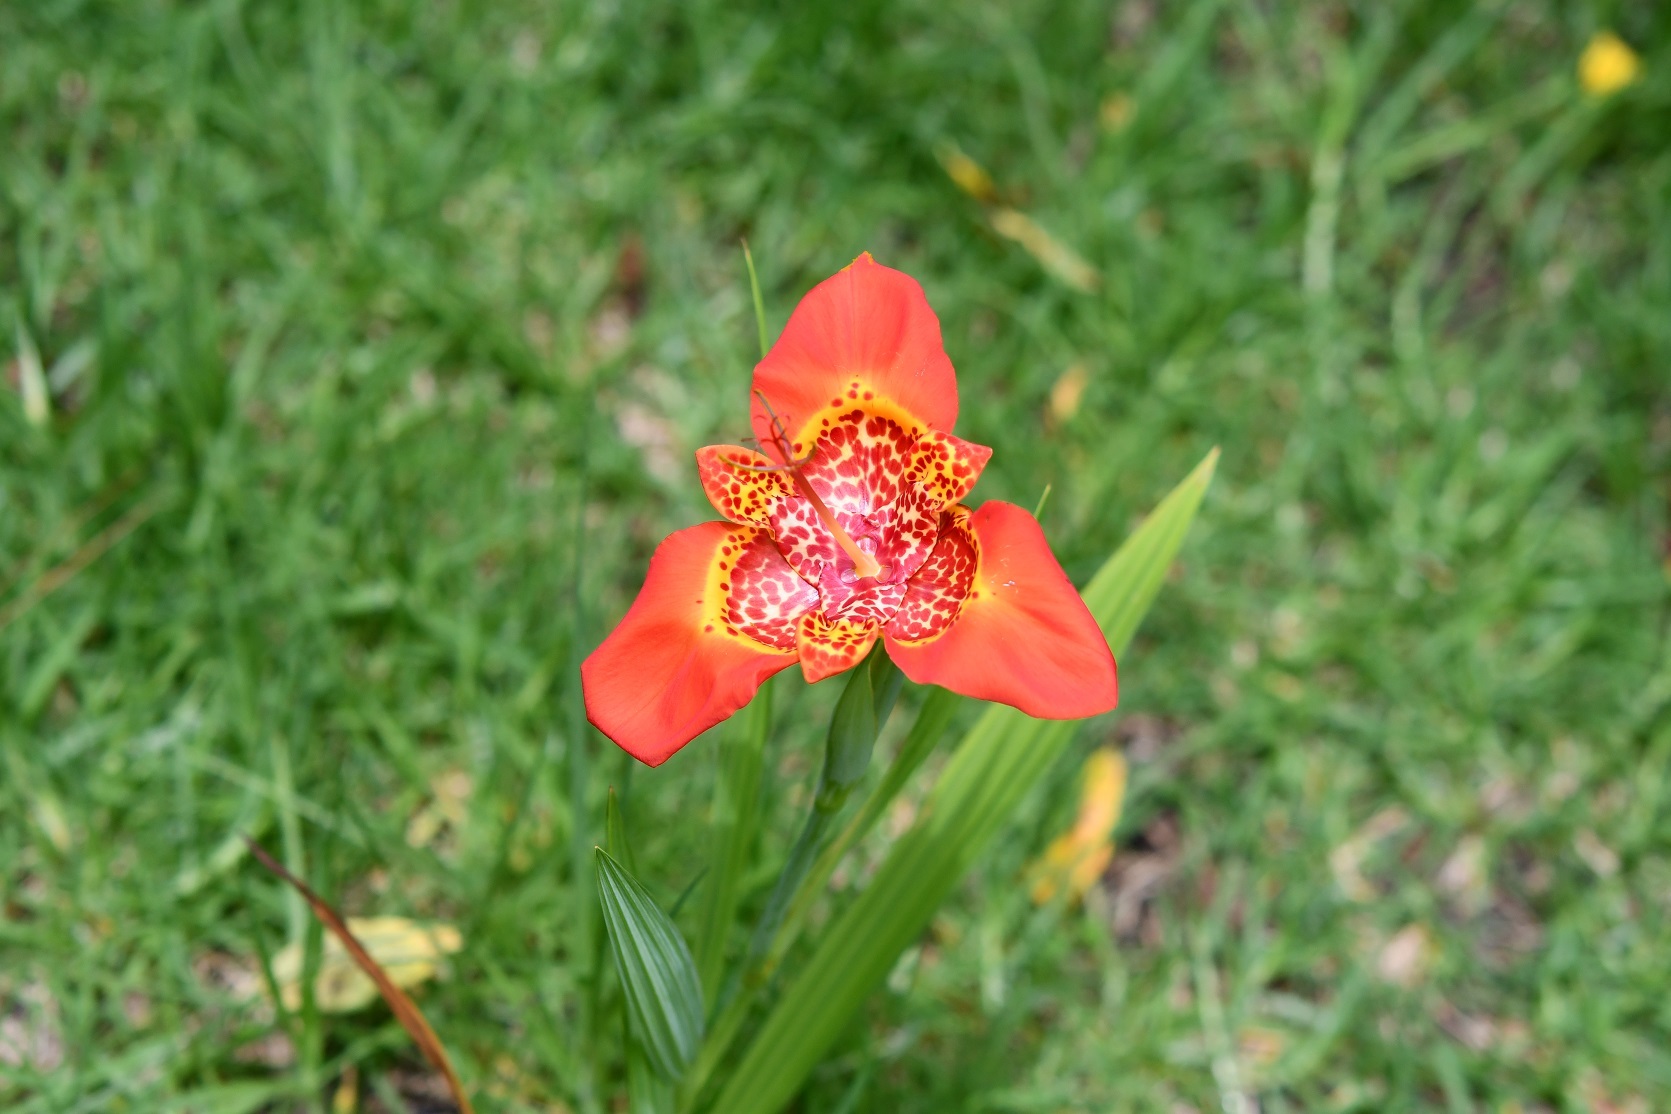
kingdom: Plantae
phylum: Tracheophyta
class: Liliopsida
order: Asparagales
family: Iridaceae
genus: Tigridia
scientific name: Tigridia pavonia
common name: Peacock-flower
